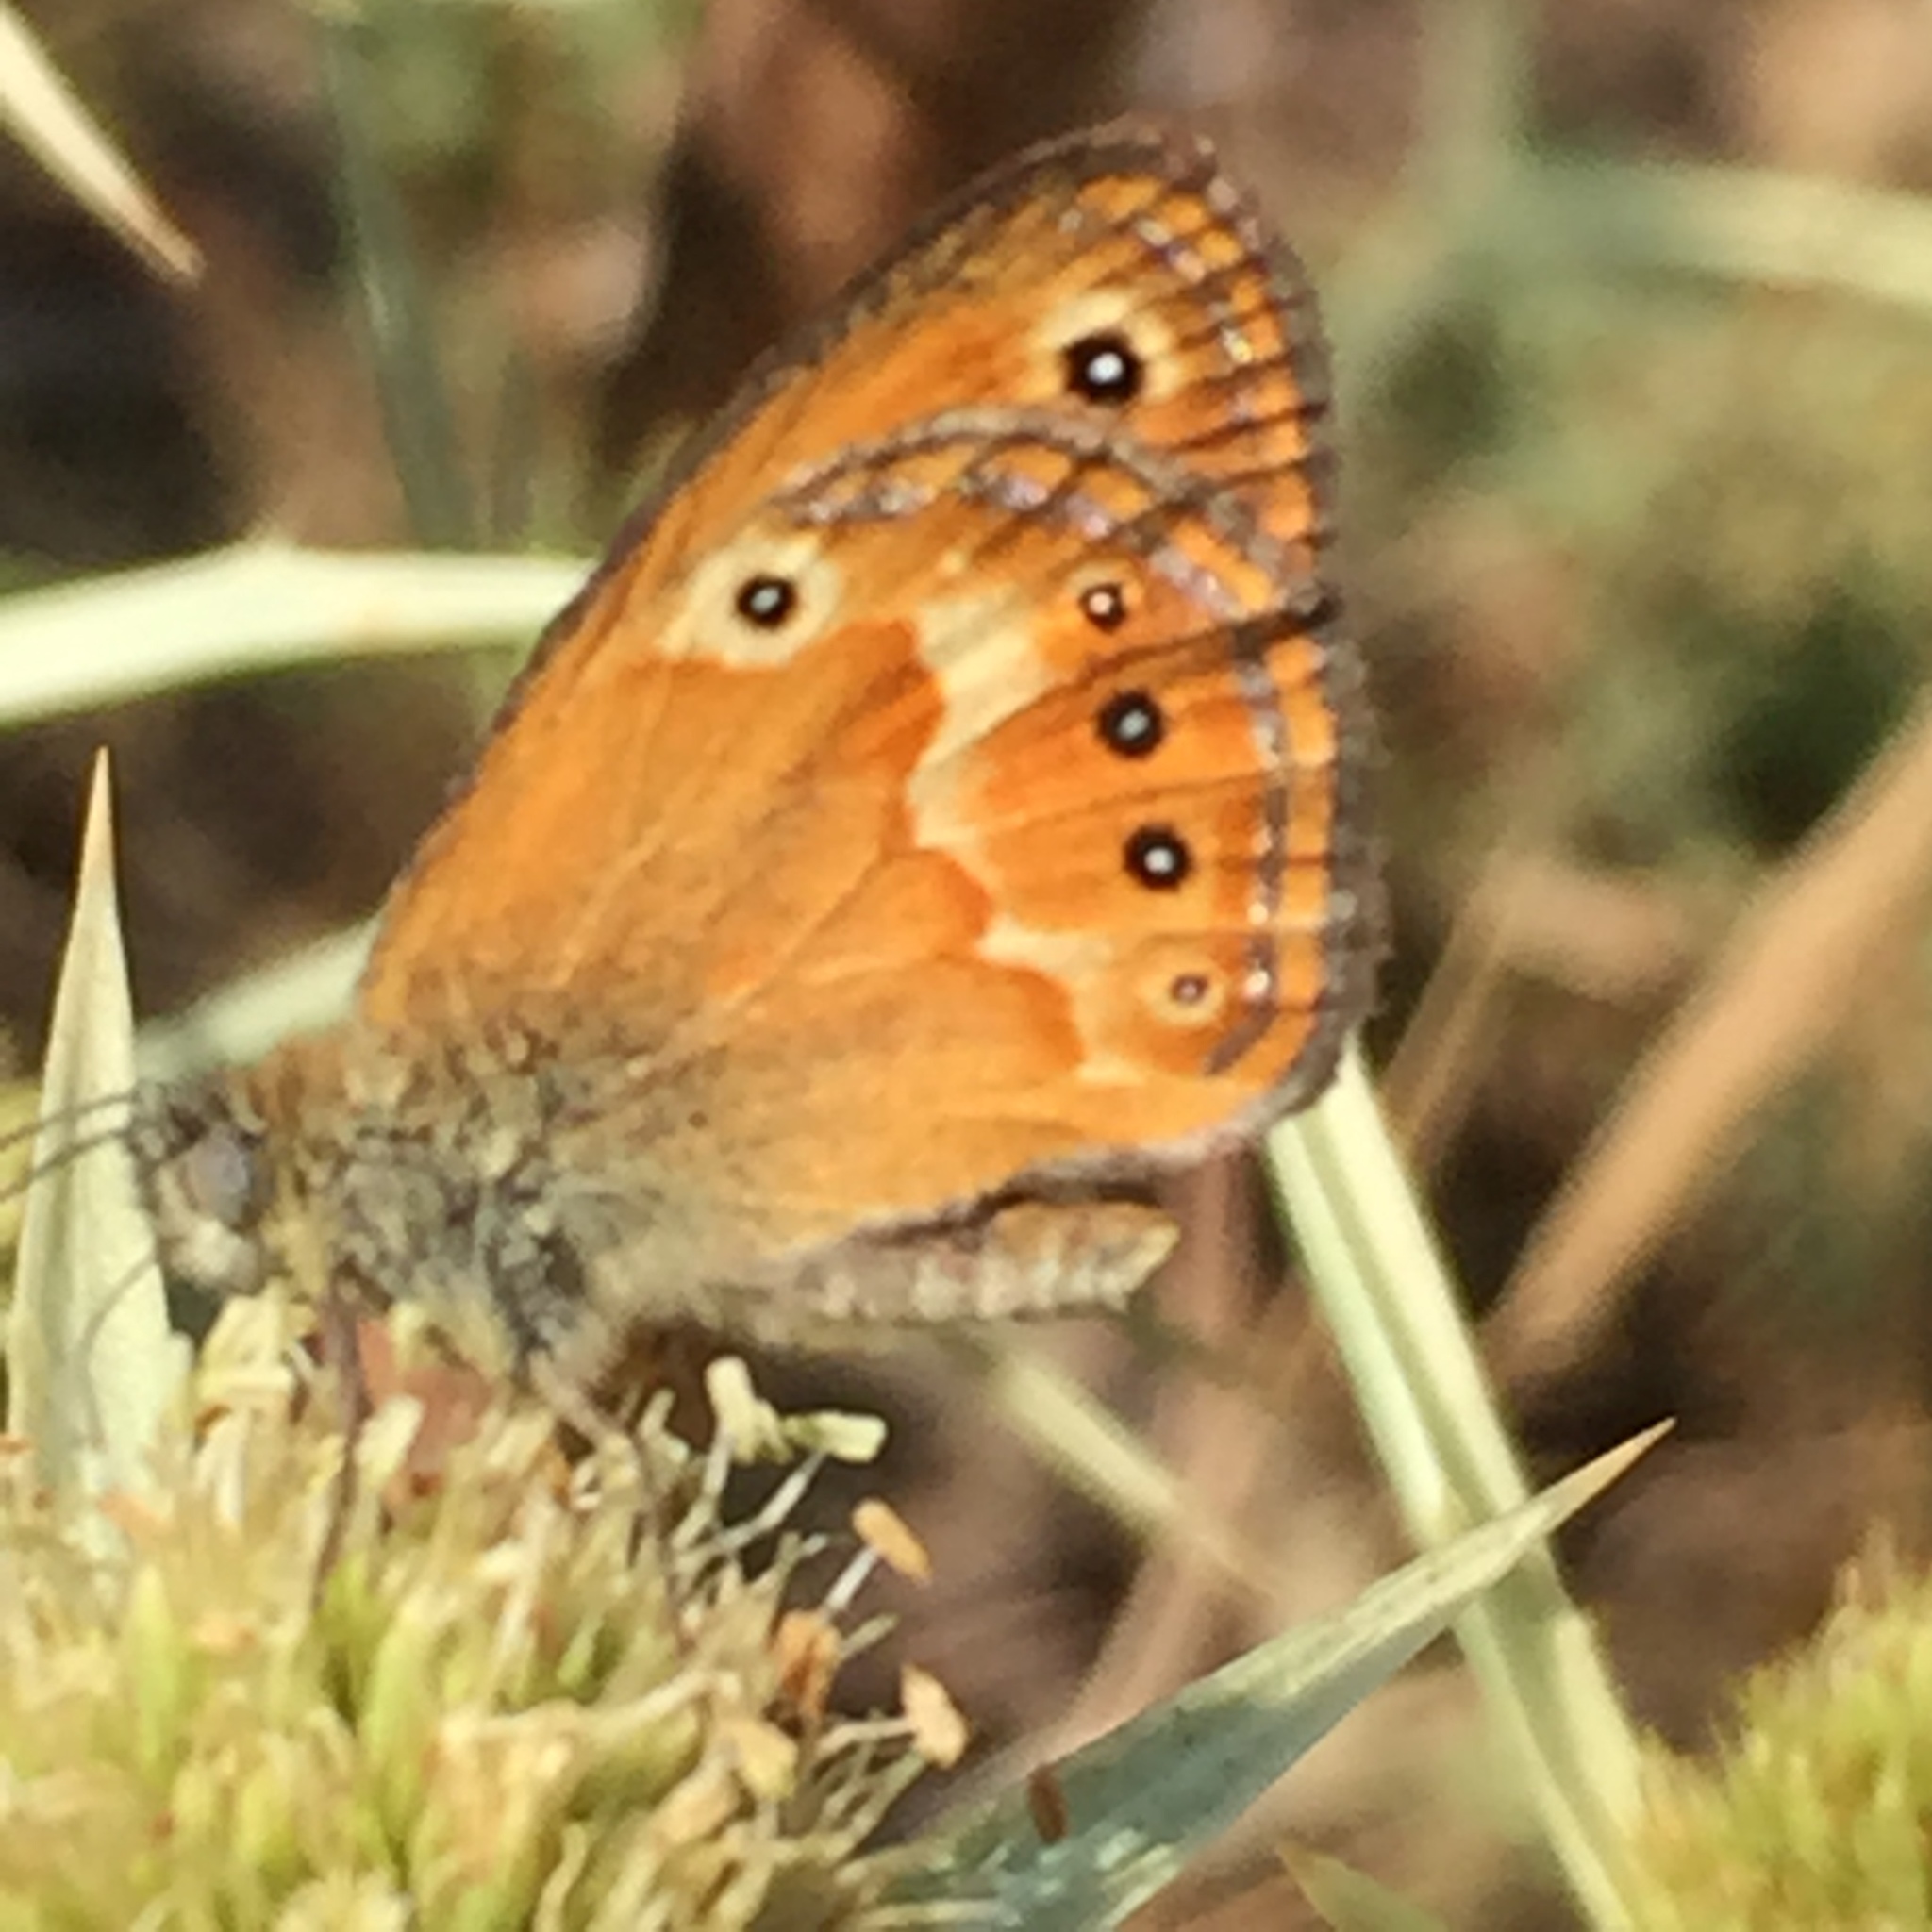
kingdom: Animalia
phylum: Arthropoda
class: Insecta
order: Lepidoptera
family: Nymphalidae
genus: Coenonympha
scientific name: Coenonympha corinna
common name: Corsican heath
